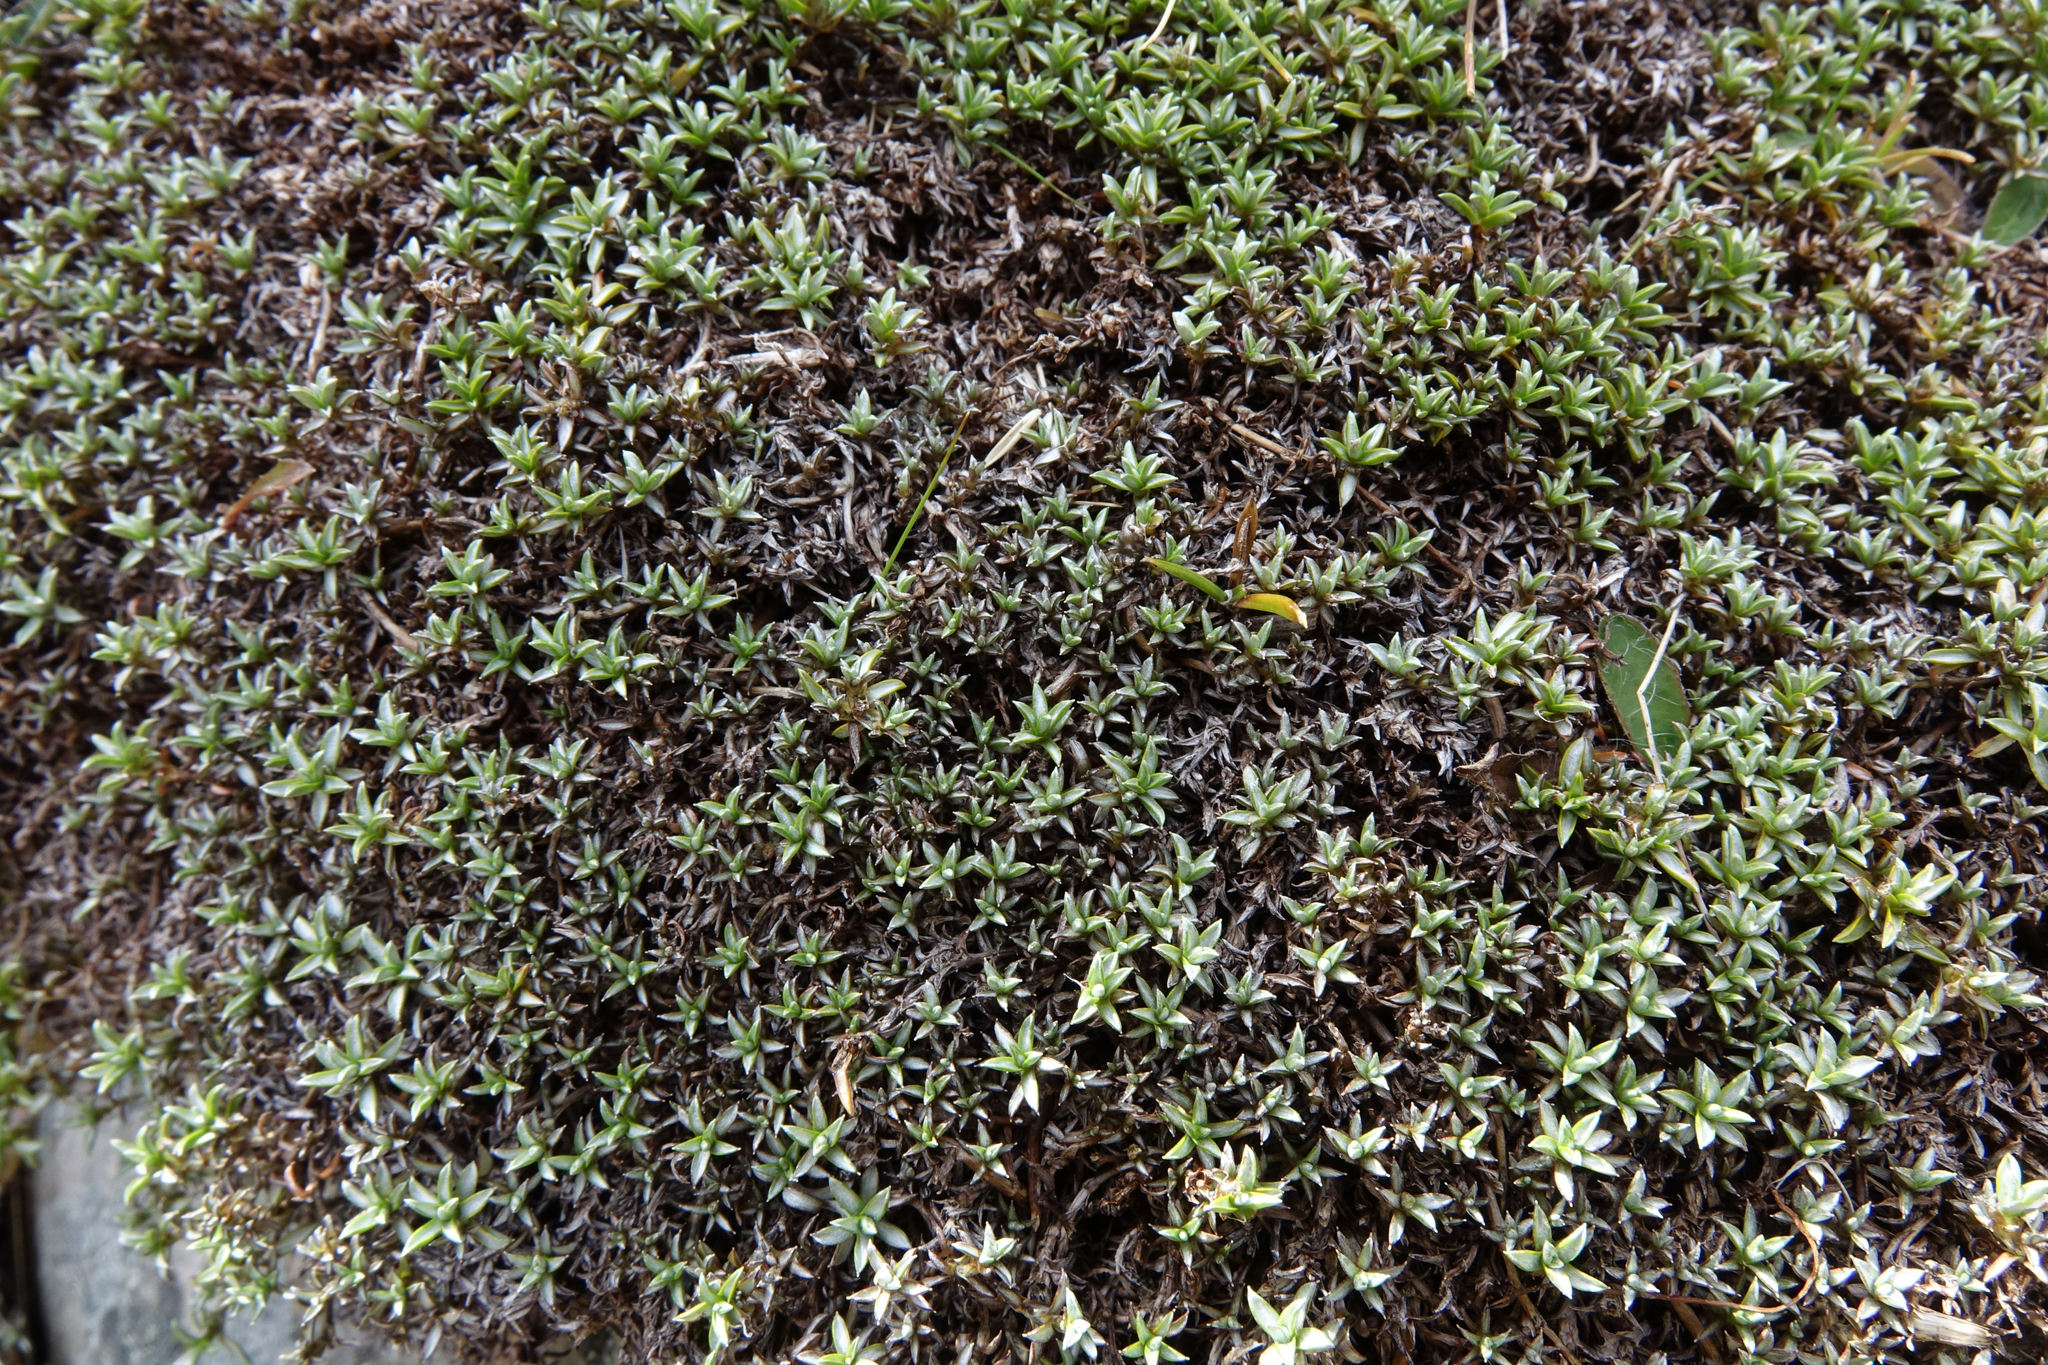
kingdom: Plantae
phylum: Tracheophyta
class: Magnoliopsida
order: Asterales
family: Asteraceae
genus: Raoulia
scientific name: Raoulia tenuicaulis
